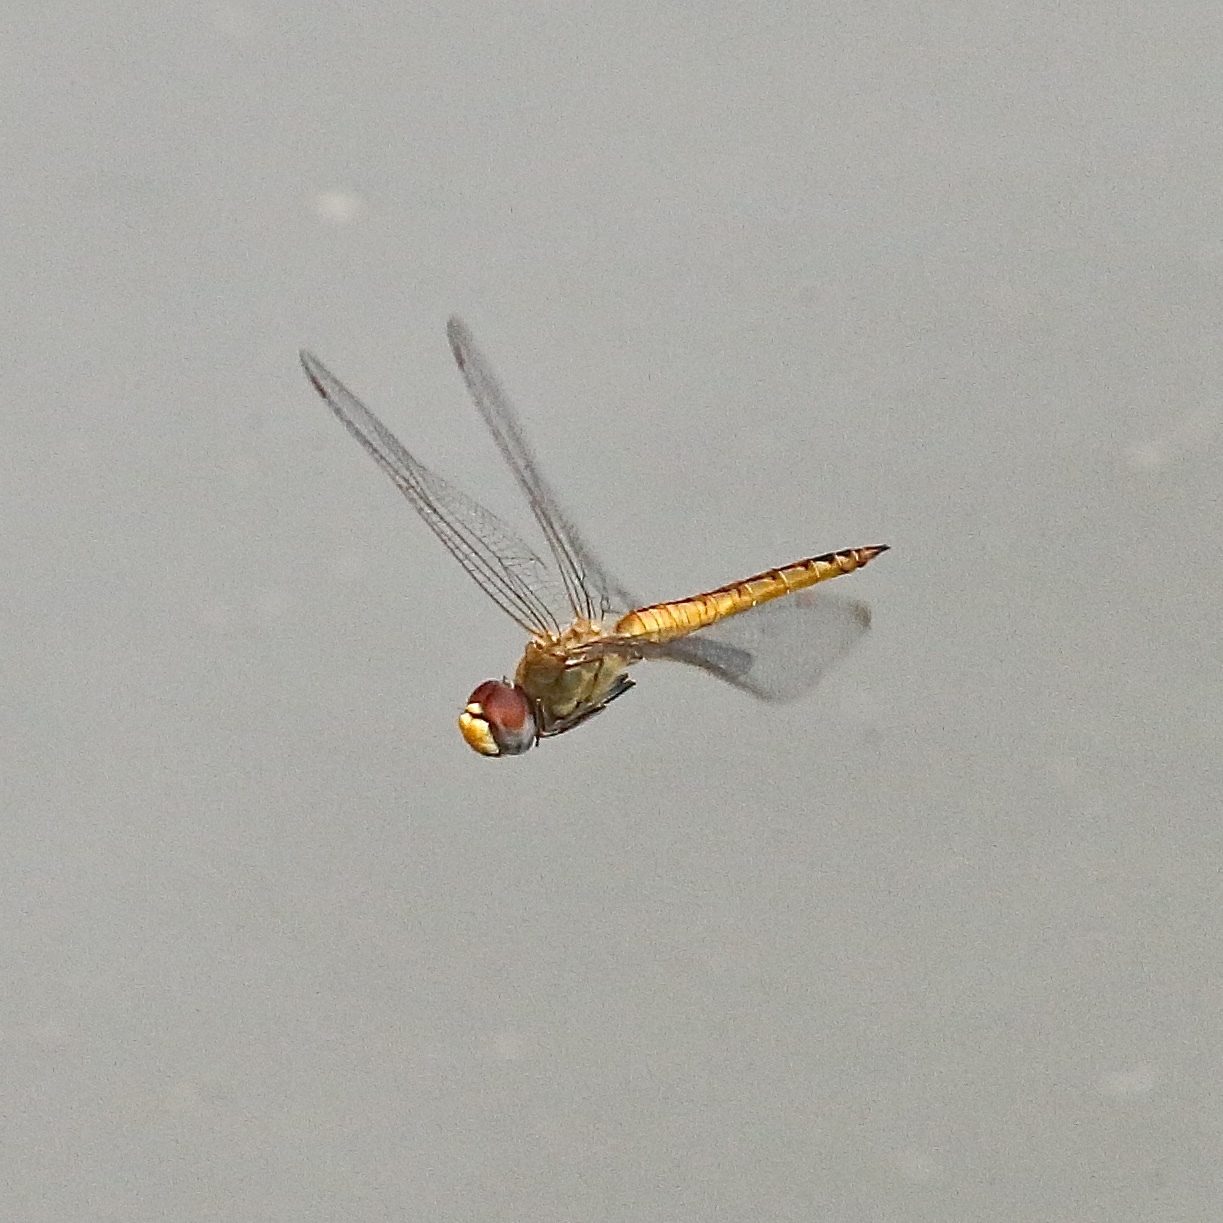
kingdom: Animalia
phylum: Arthropoda
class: Insecta
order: Odonata
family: Libellulidae
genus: Pantala
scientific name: Pantala flavescens
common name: Wandering glider
